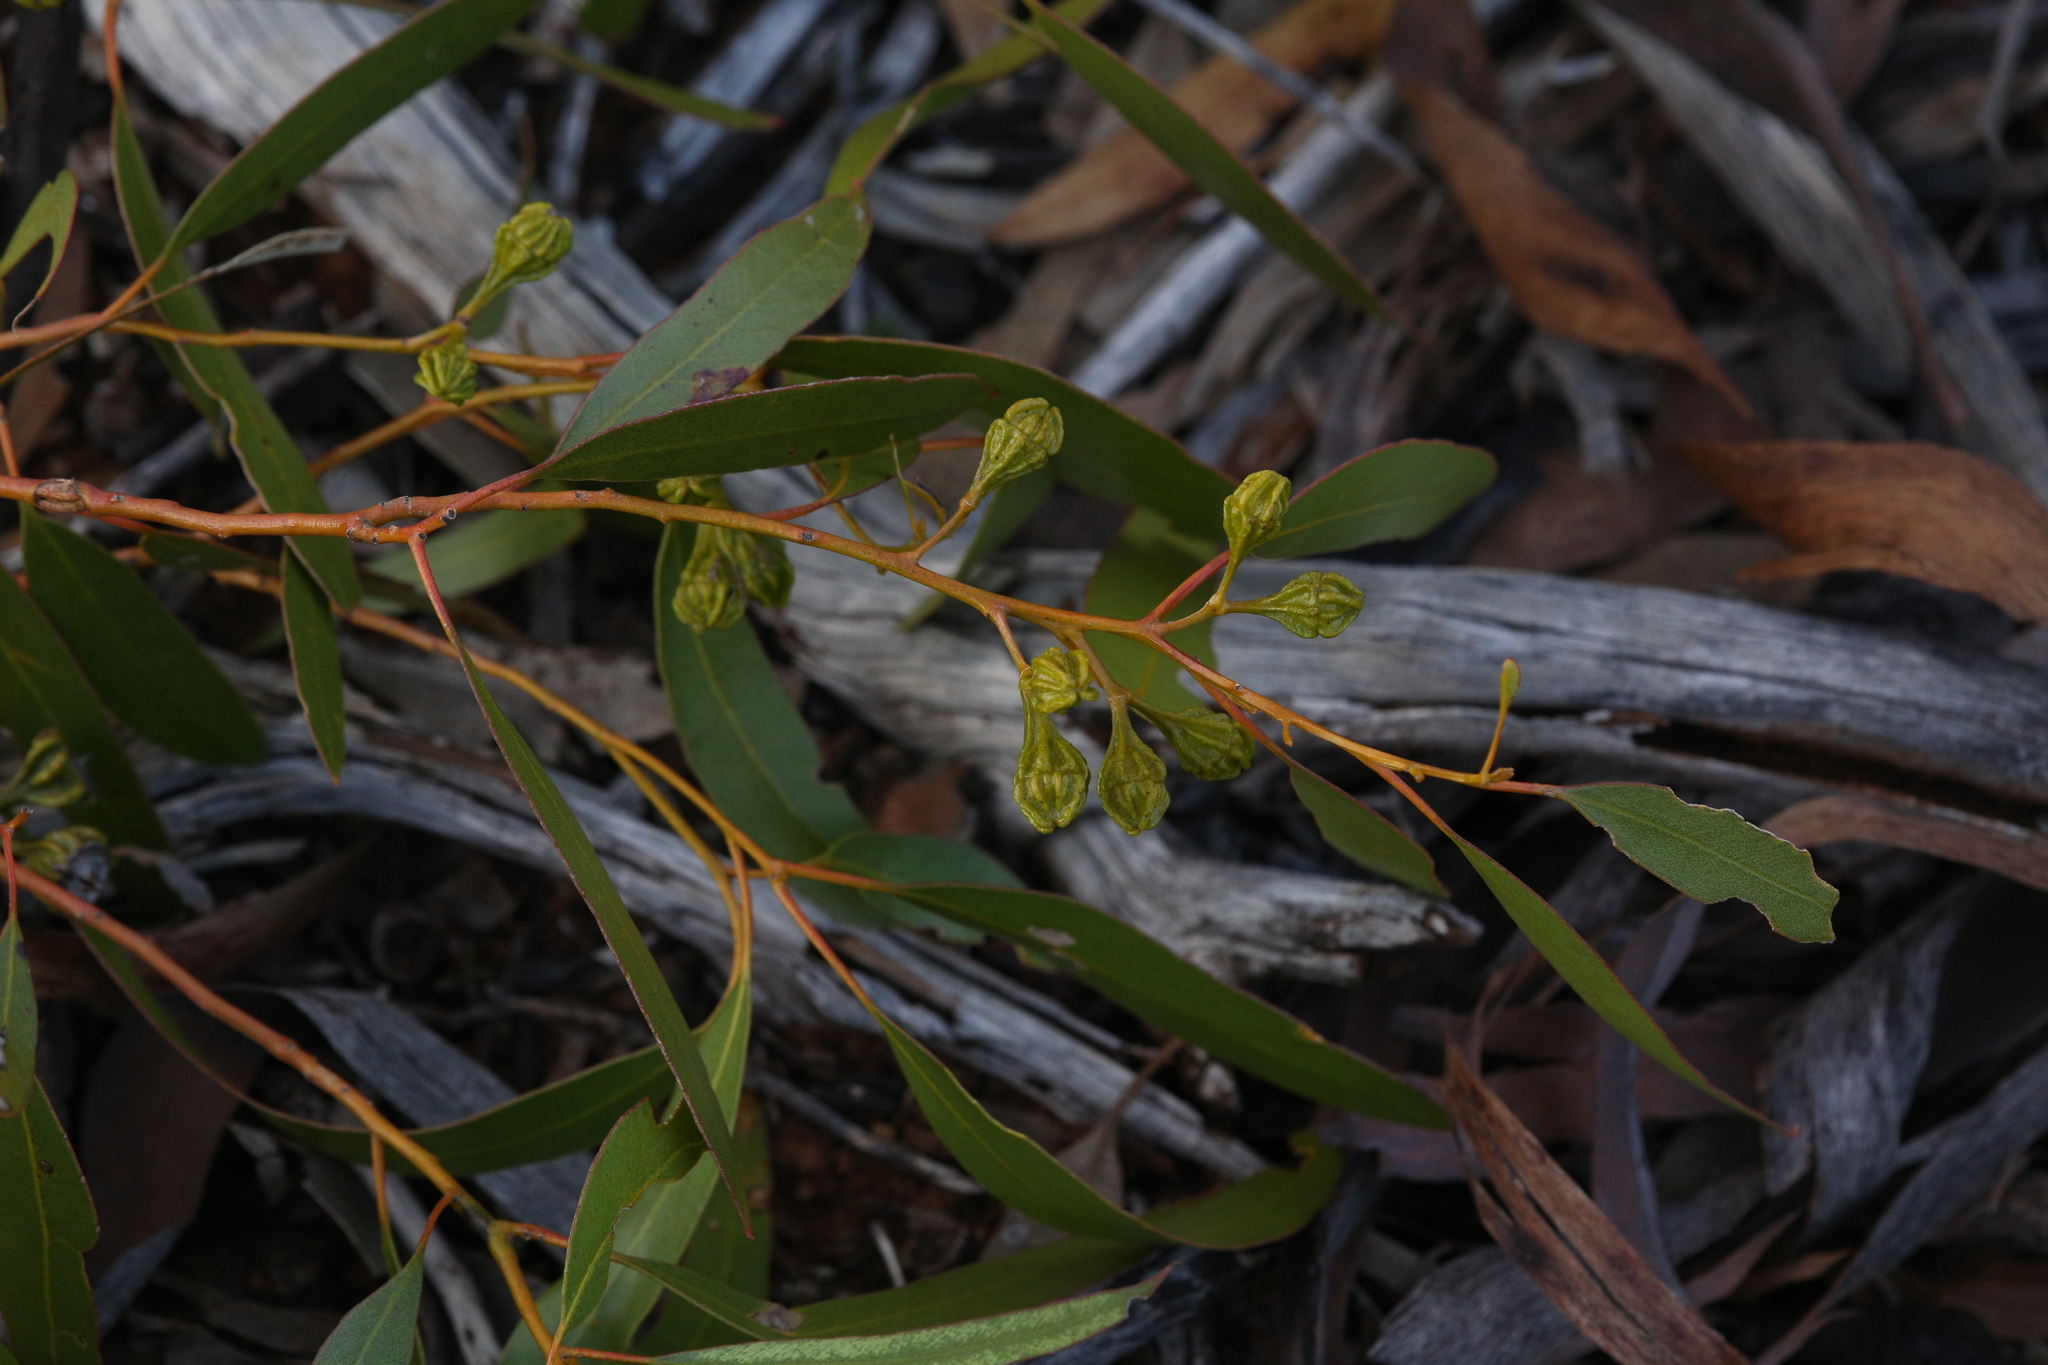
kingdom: Plantae
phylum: Tracheophyta
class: Magnoliopsida
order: Myrtales
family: Myrtaceae
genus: Eucalyptus
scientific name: Eucalyptus corrugata
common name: Rib-fruit mallee
